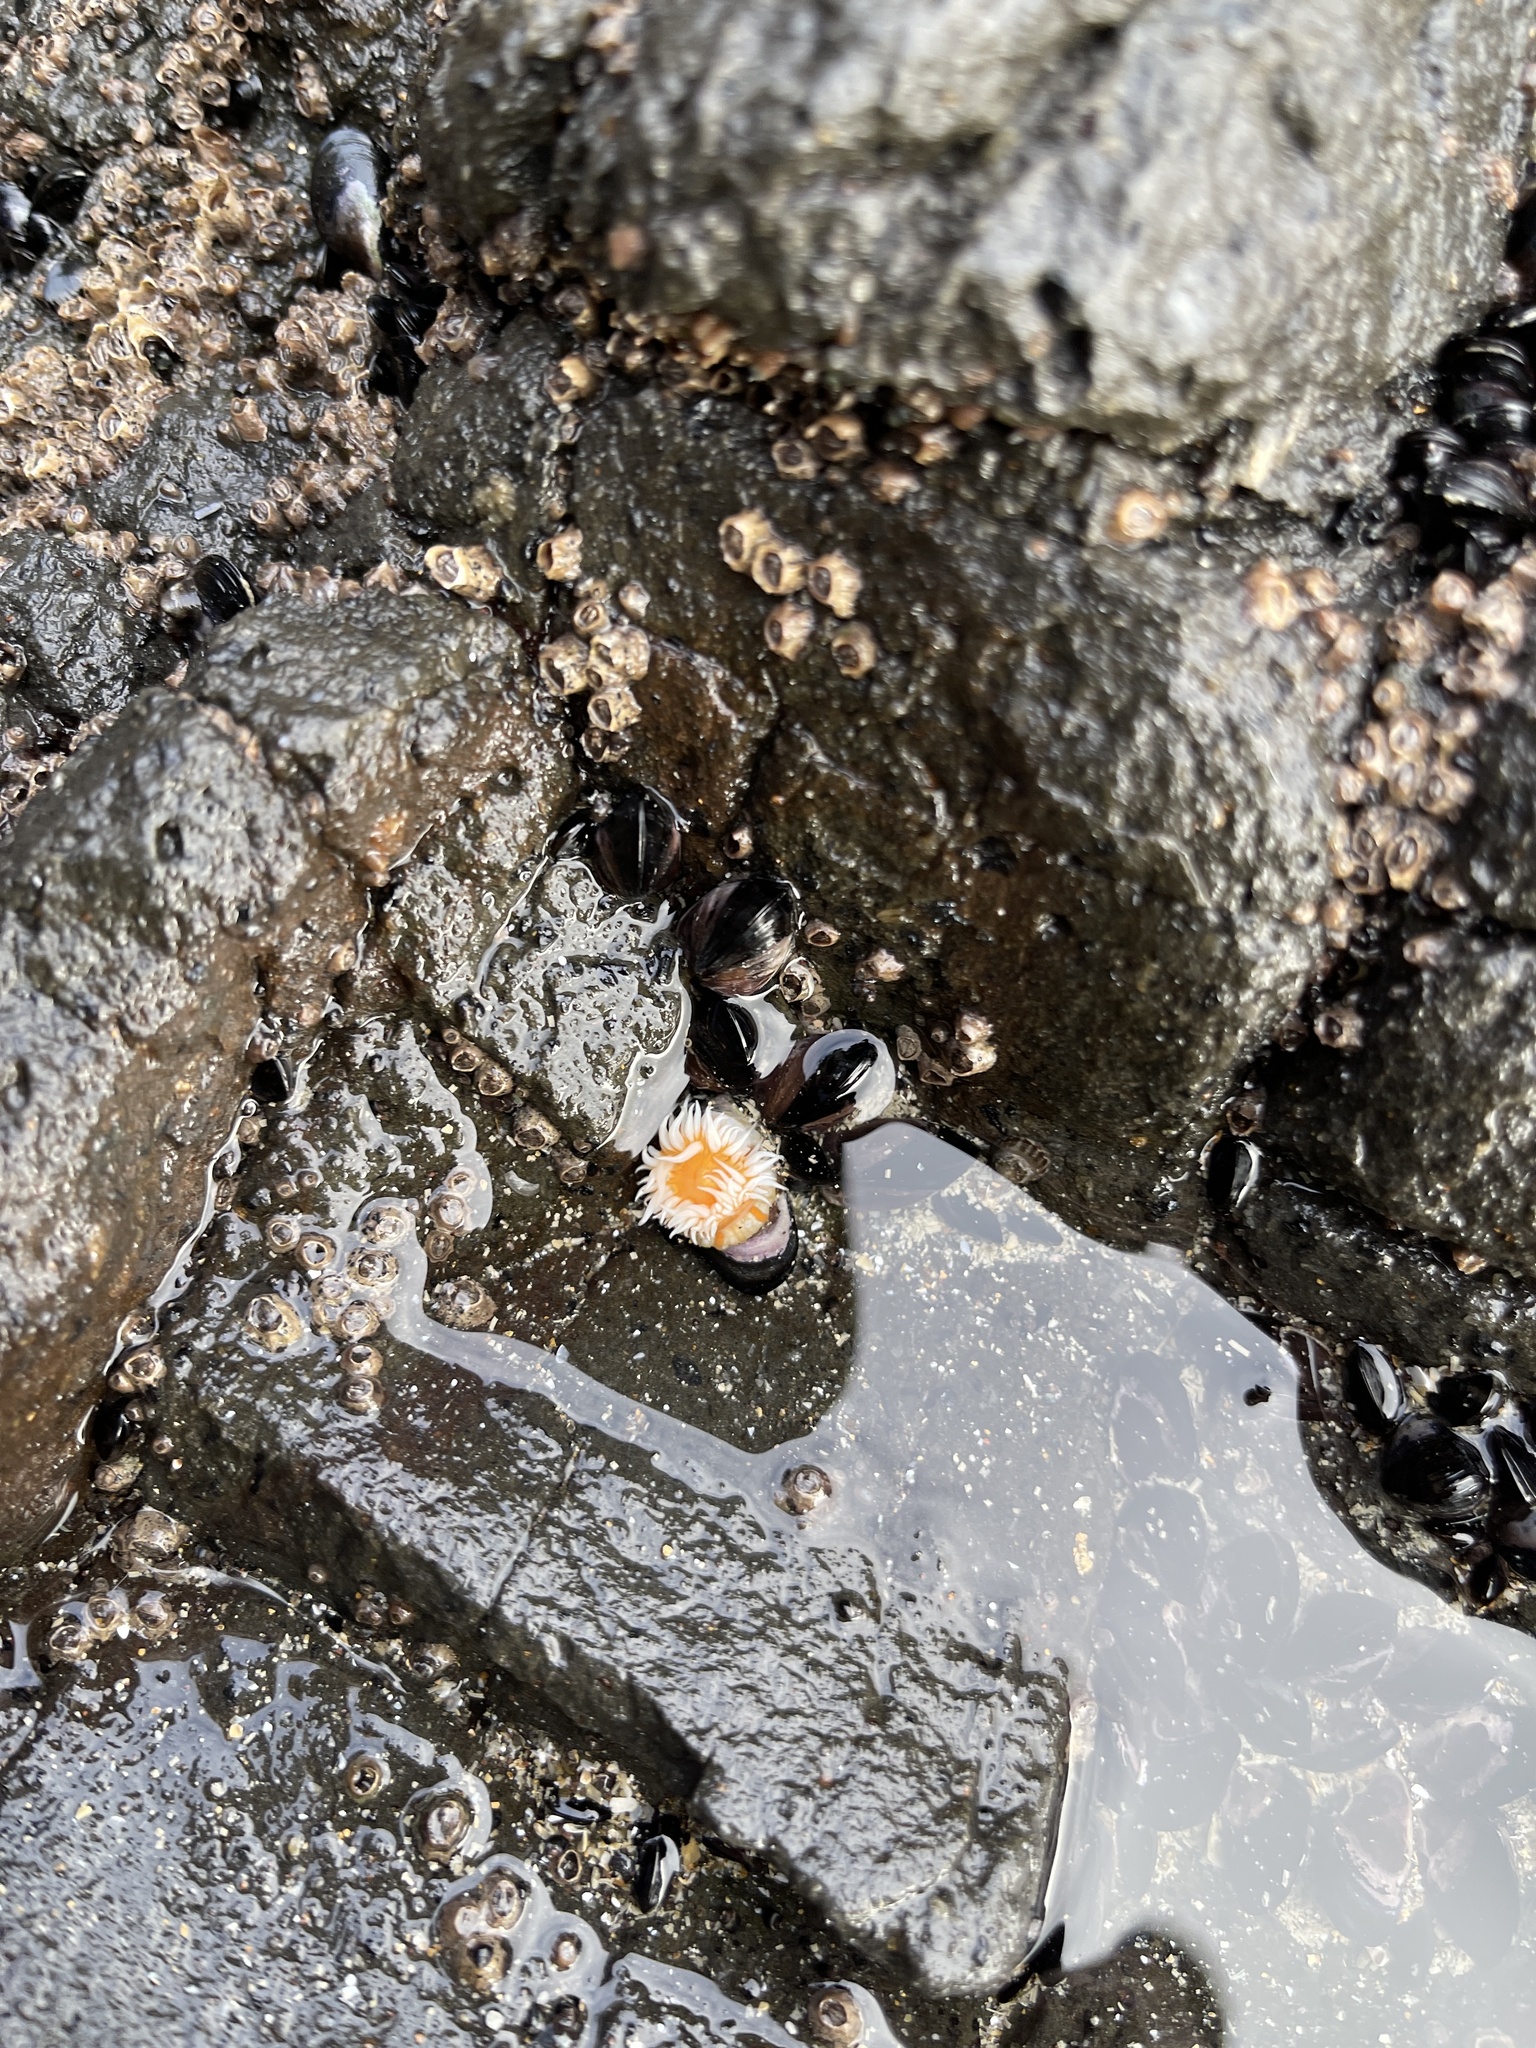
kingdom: Animalia
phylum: Cnidaria
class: Anthozoa
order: Actiniaria
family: Sagartiidae
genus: Anthothoe
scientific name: Anthothoe albocincta
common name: Orange striped anemone
